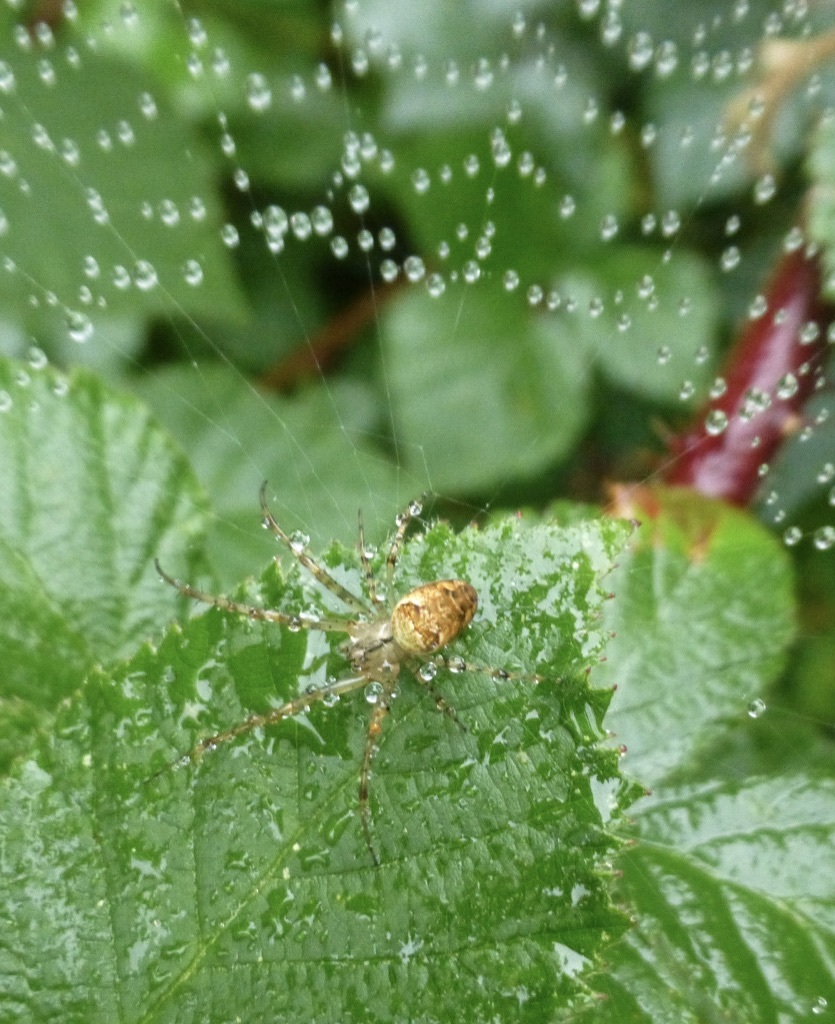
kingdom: Animalia
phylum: Arthropoda
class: Arachnida
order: Araneae
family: Tetragnathidae
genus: Metellina
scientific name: Metellina
